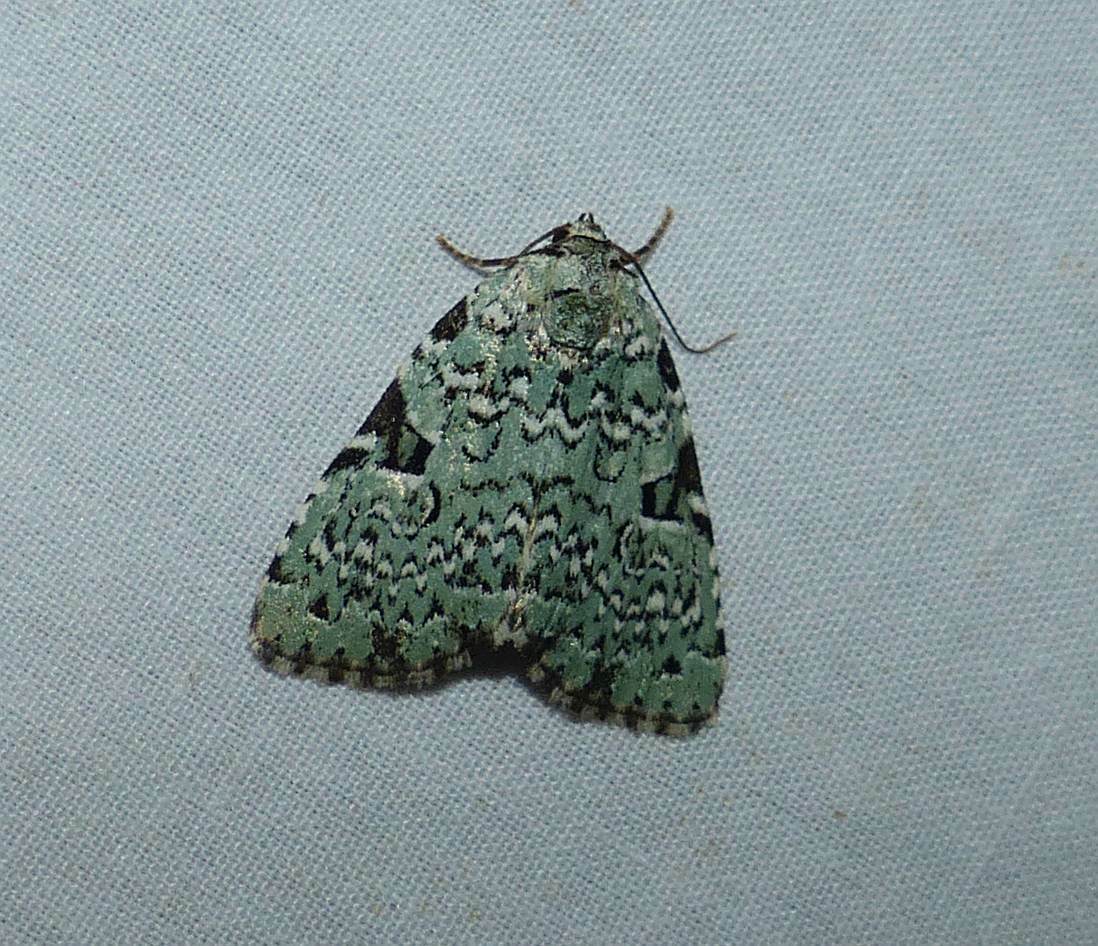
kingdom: Animalia
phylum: Arthropoda
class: Insecta
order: Lepidoptera
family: Noctuidae
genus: Leuconycta
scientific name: Leuconycta diphteroides
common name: Green leuconycta moth
